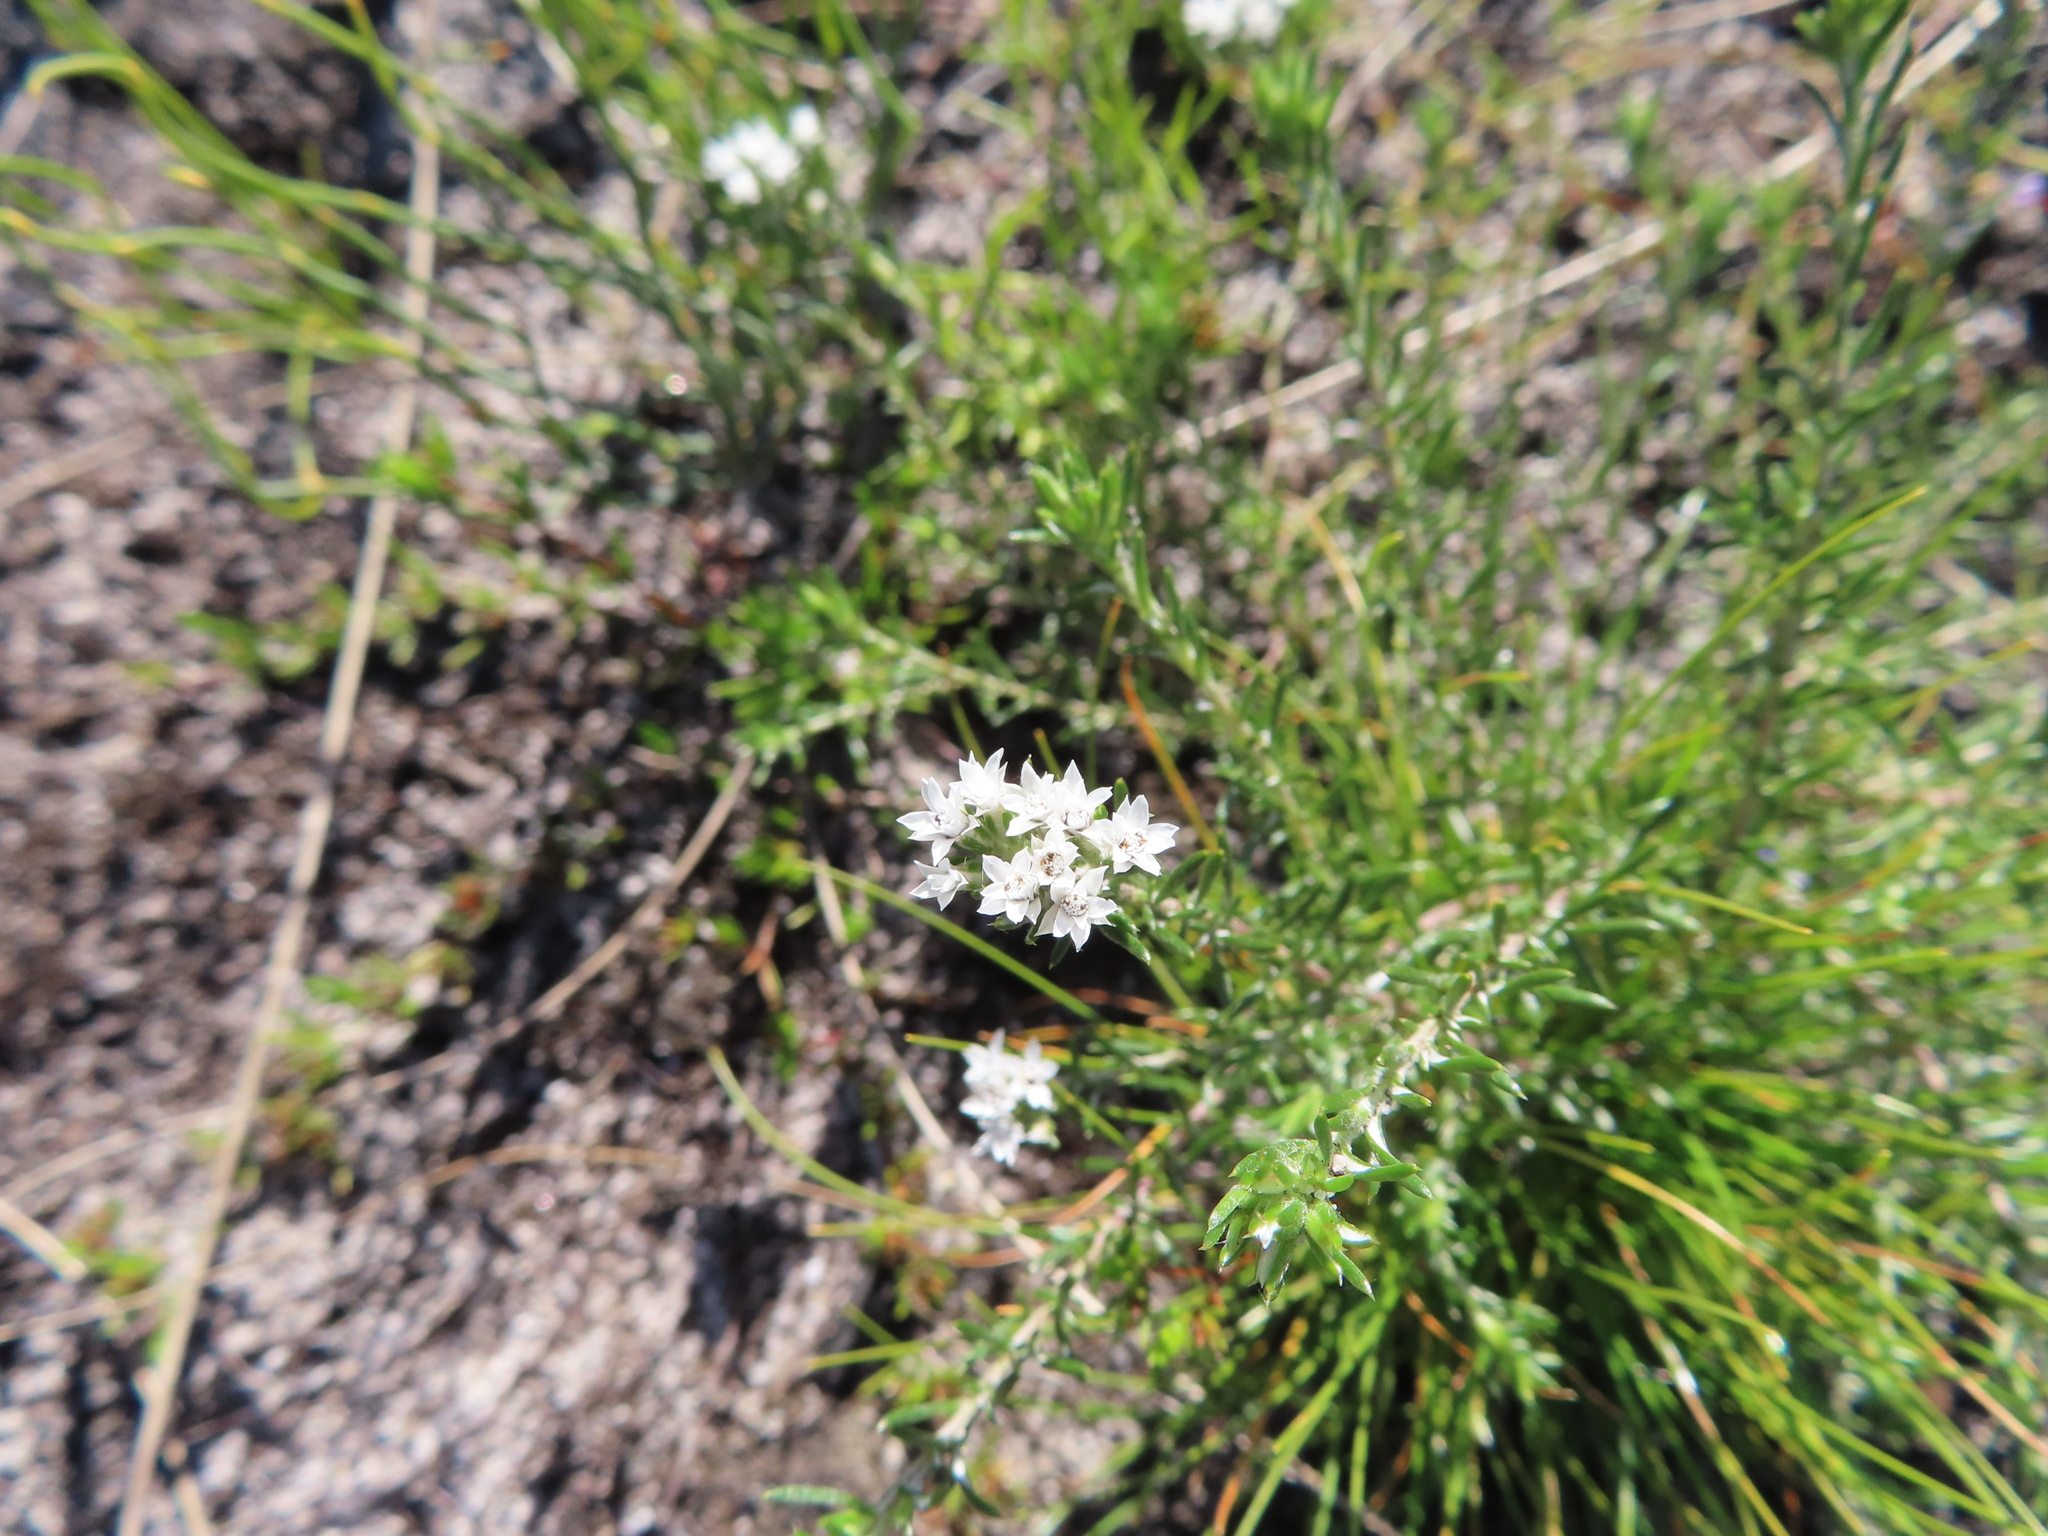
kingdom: Plantae
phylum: Tracheophyta
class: Magnoliopsida
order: Asterales
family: Asteraceae
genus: Metalasia
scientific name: Metalasia quinqueflora
